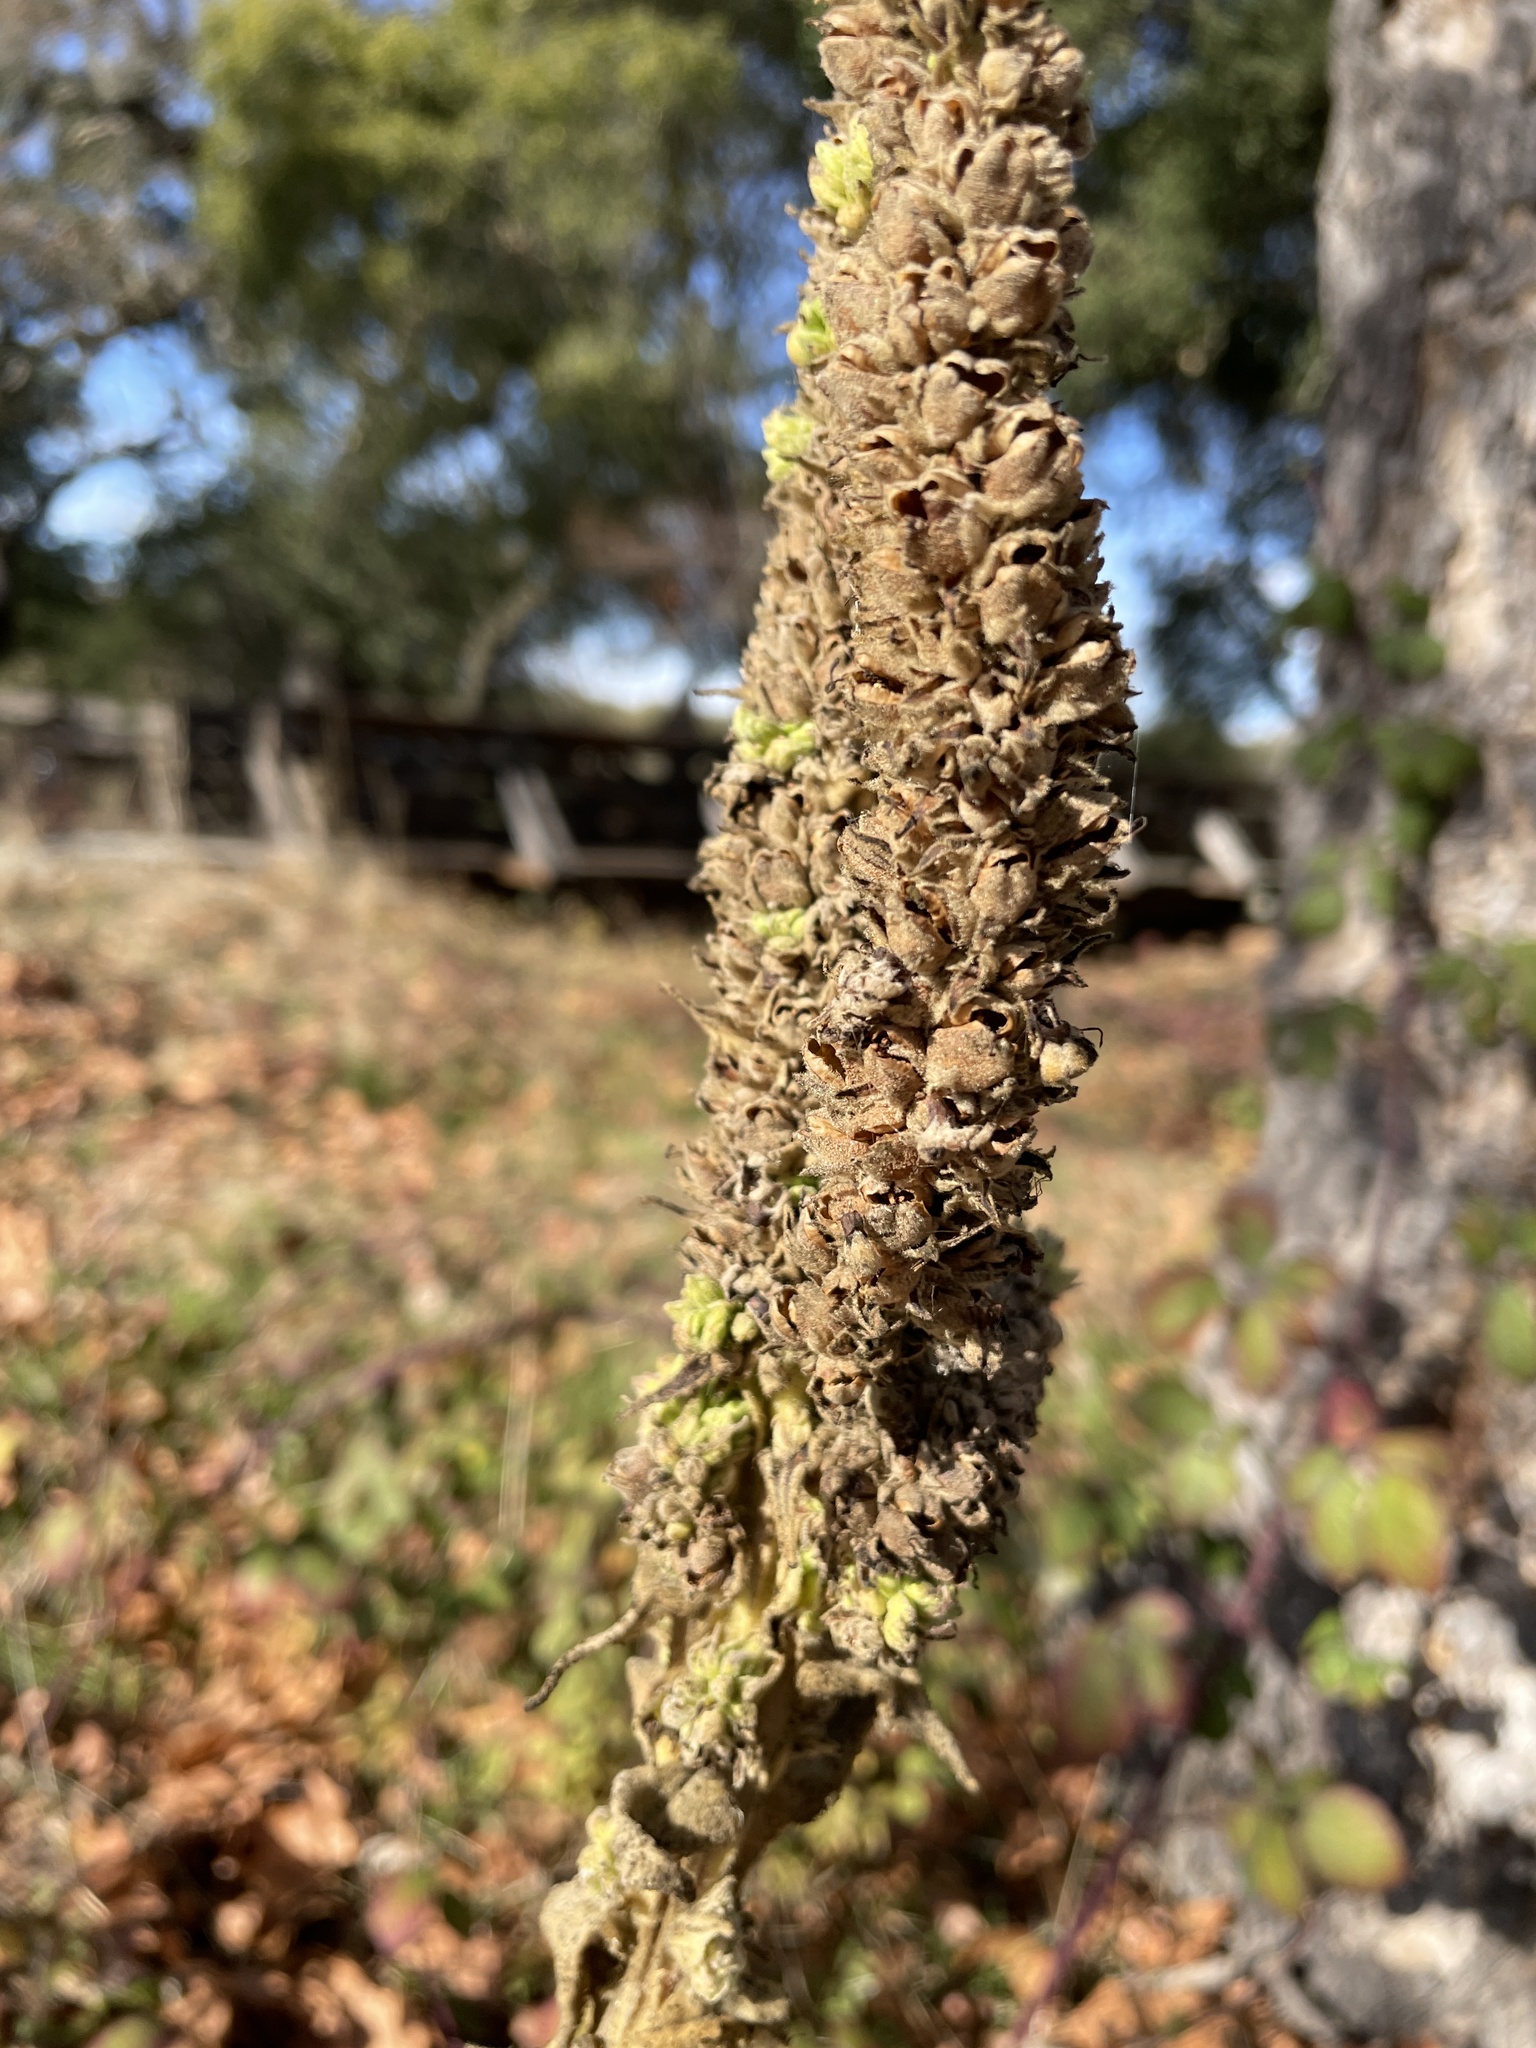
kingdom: Plantae
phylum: Tracheophyta
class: Magnoliopsida
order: Lamiales
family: Scrophulariaceae
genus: Verbascum
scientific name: Verbascum thapsus
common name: Common mullein
